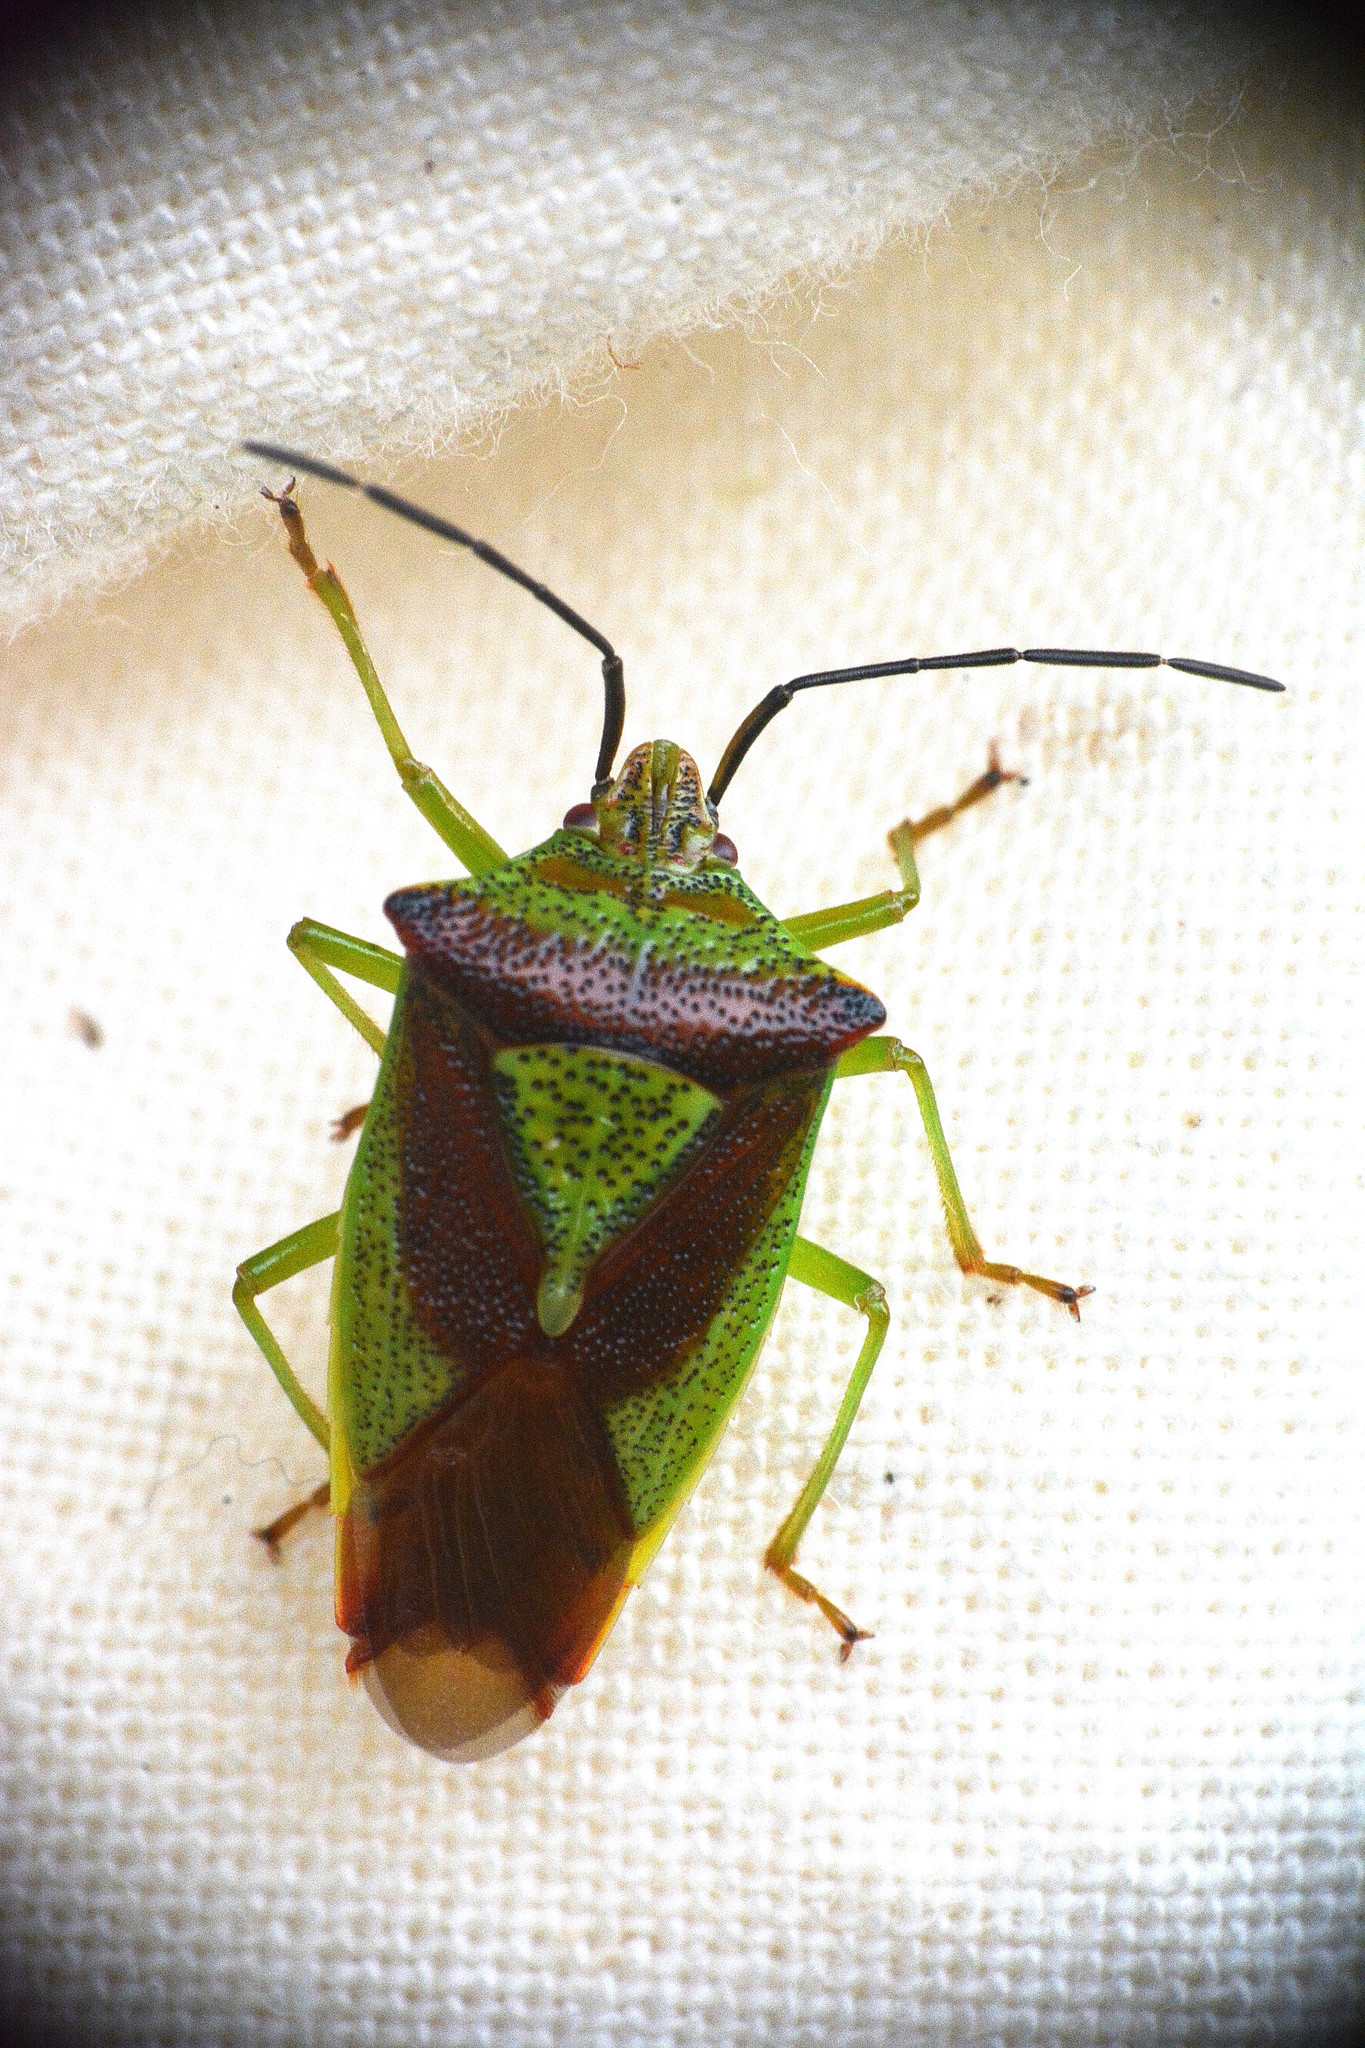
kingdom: Animalia
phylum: Arthropoda
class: Insecta
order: Hemiptera
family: Acanthosomatidae
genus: Acanthosoma
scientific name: Acanthosoma haemorrhoidale
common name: Hawthorn shieldbug
